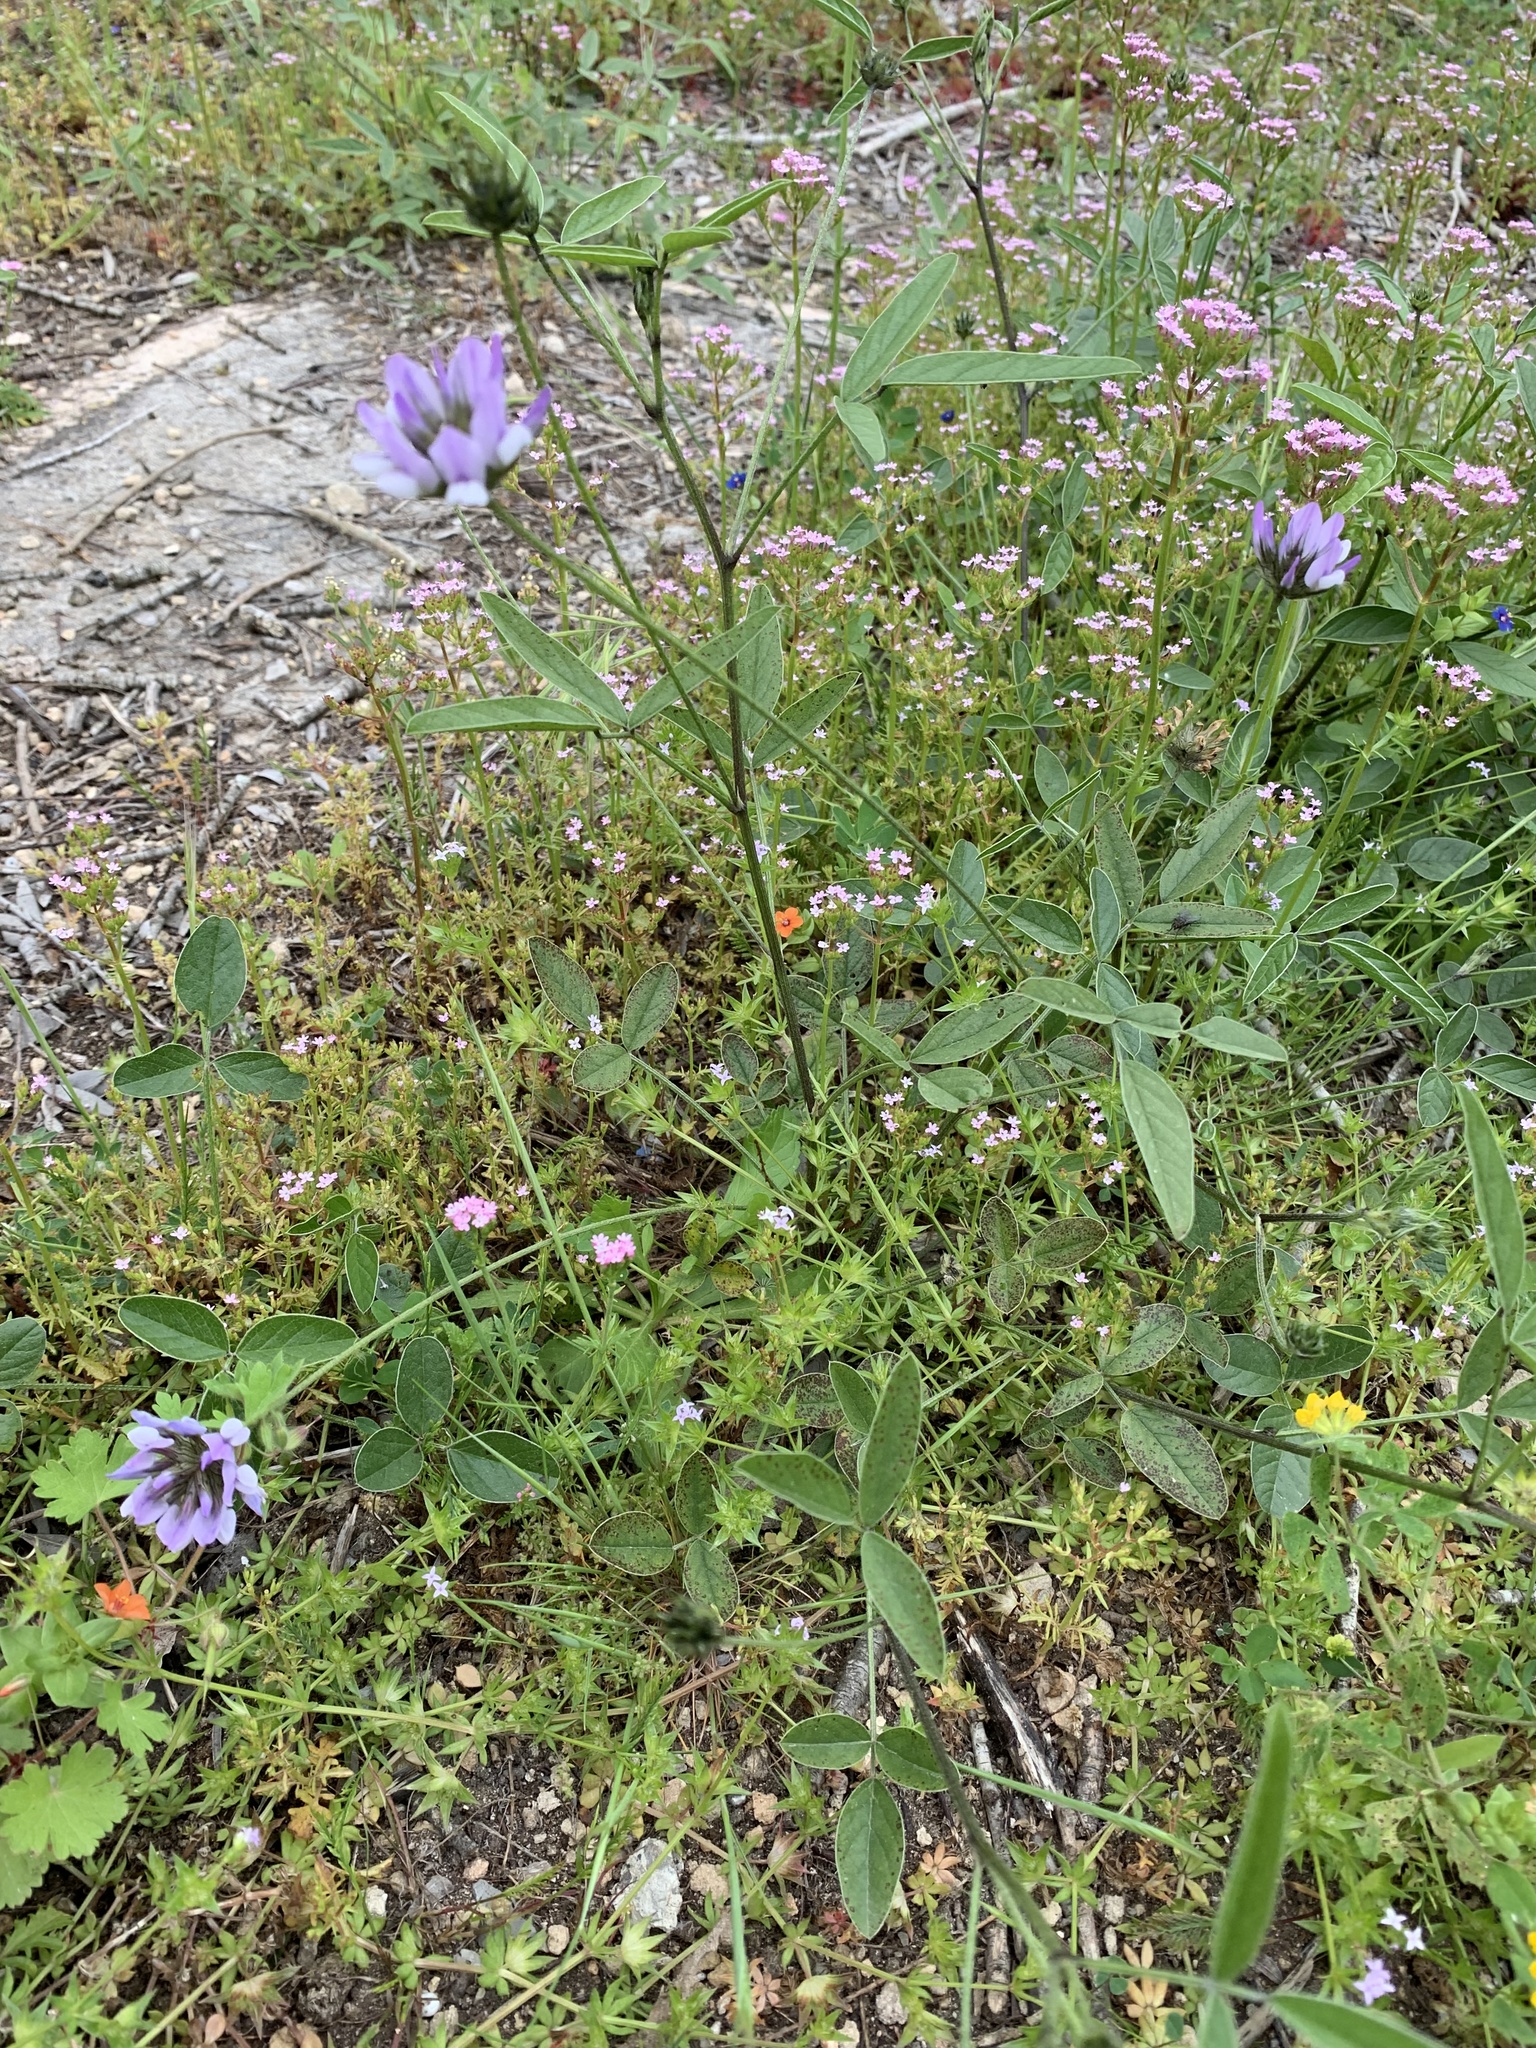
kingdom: Plantae
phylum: Tracheophyta
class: Magnoliopsida
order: Fabales
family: Fabaceae
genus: Bituminaria
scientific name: Bituminaria bituminosa
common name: Arabian pea
